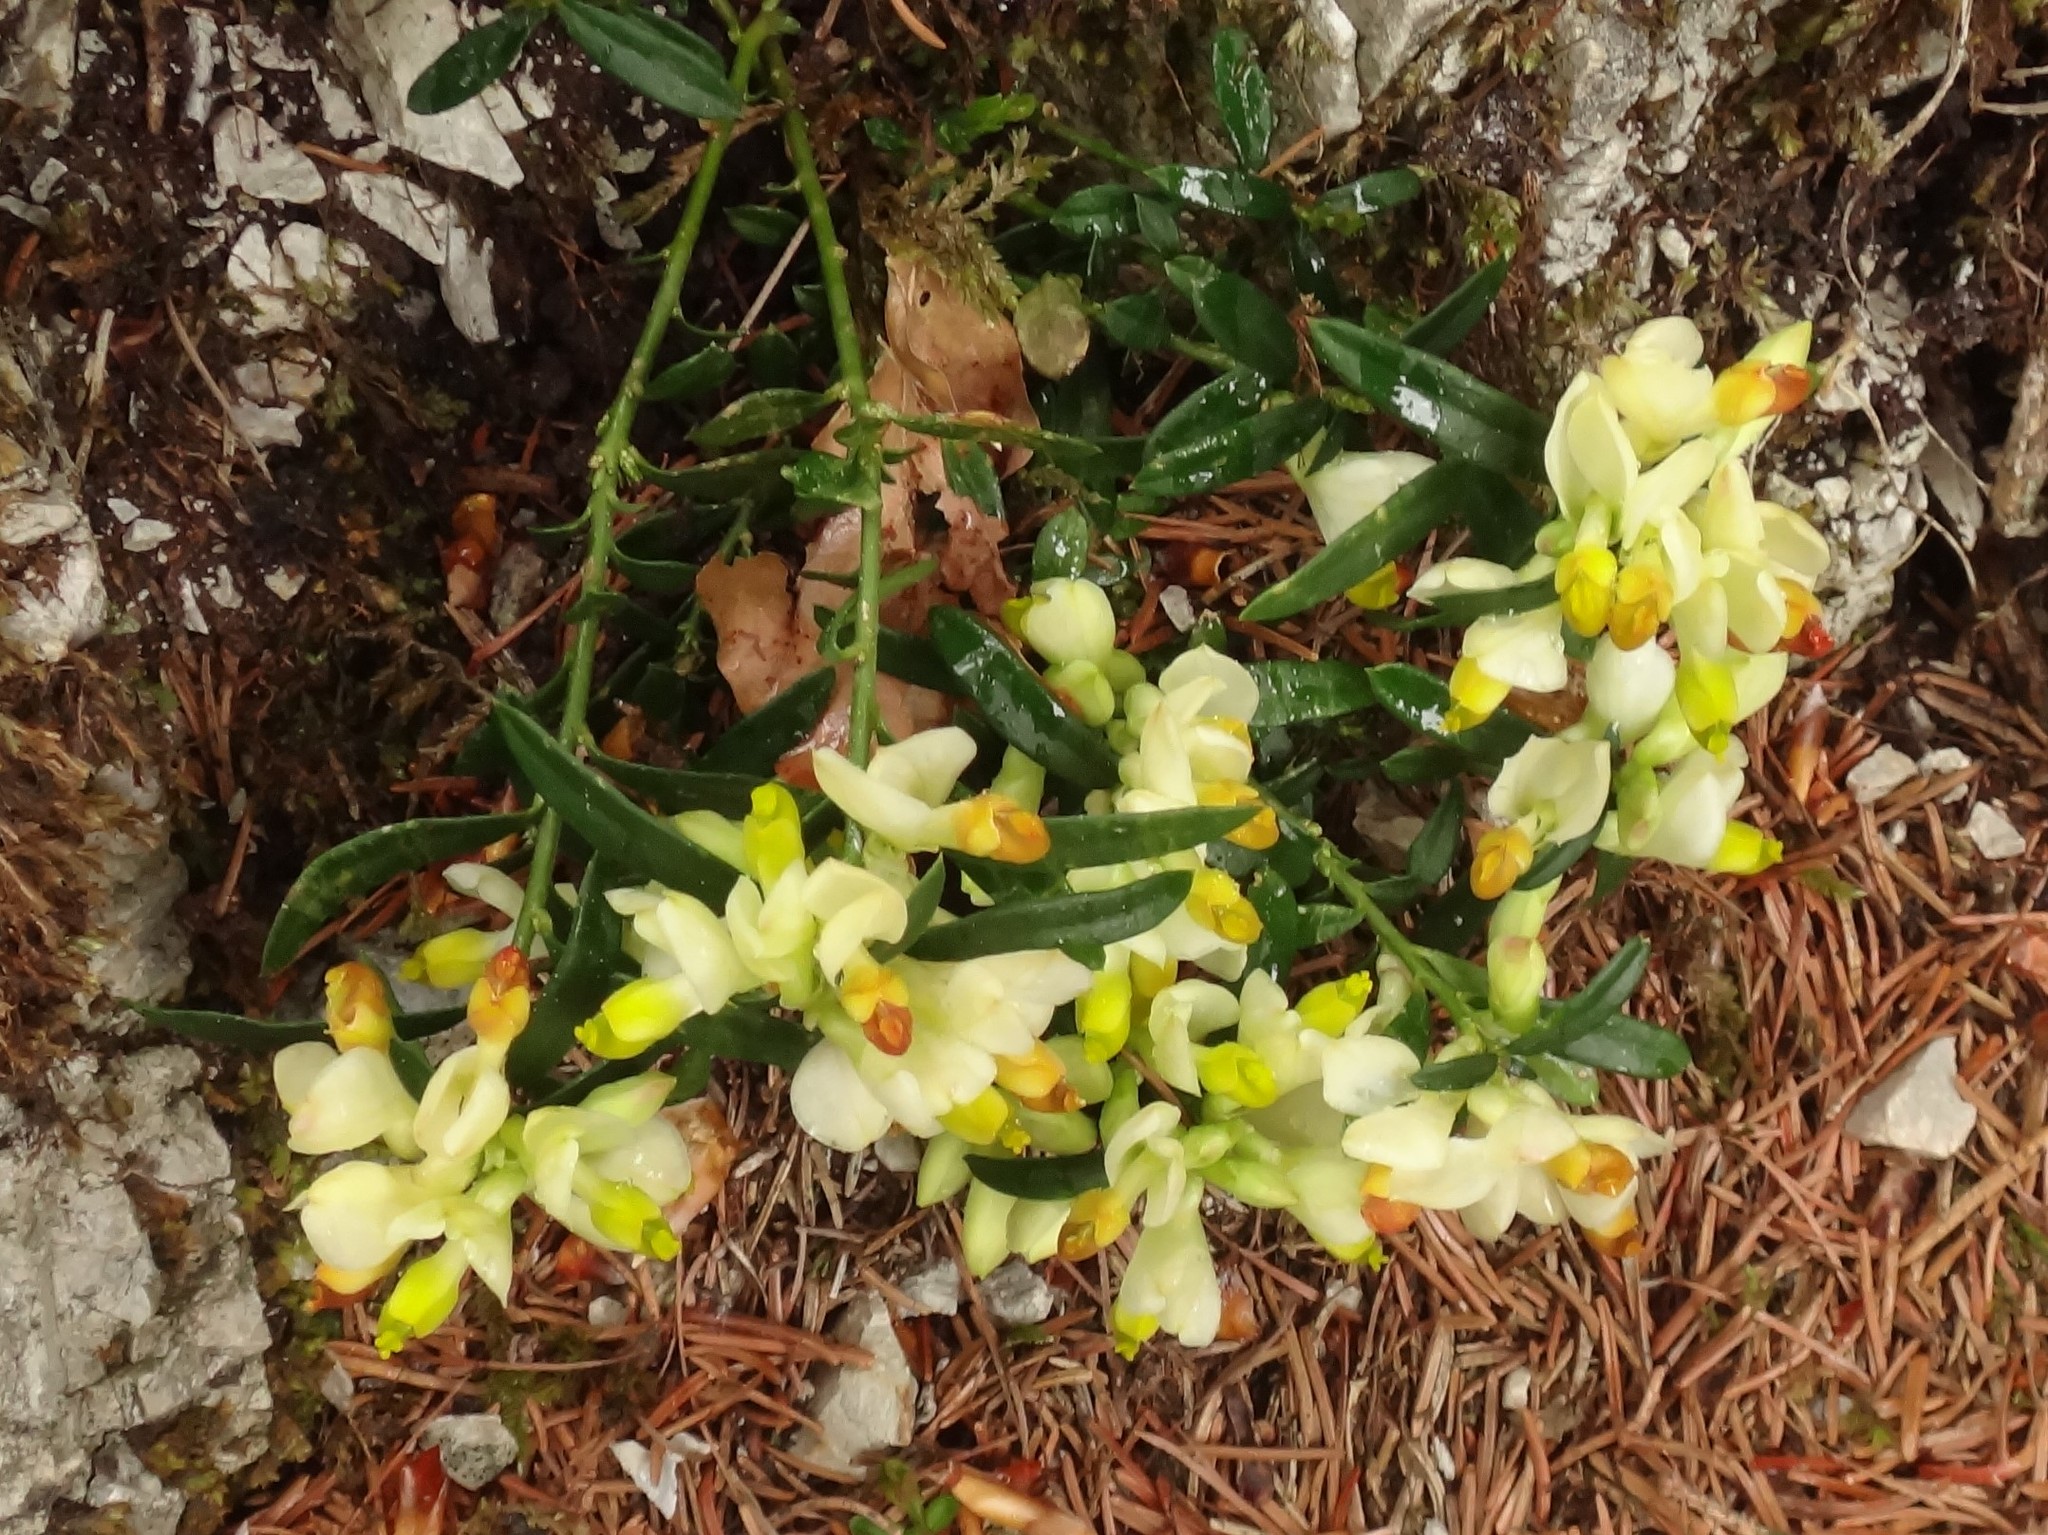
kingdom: Plantae
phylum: Tracheophyta
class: Magnoliopsida
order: Fabales
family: Polygalaceae
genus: Polygaloides
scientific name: Polygaloides chamaebuxus
